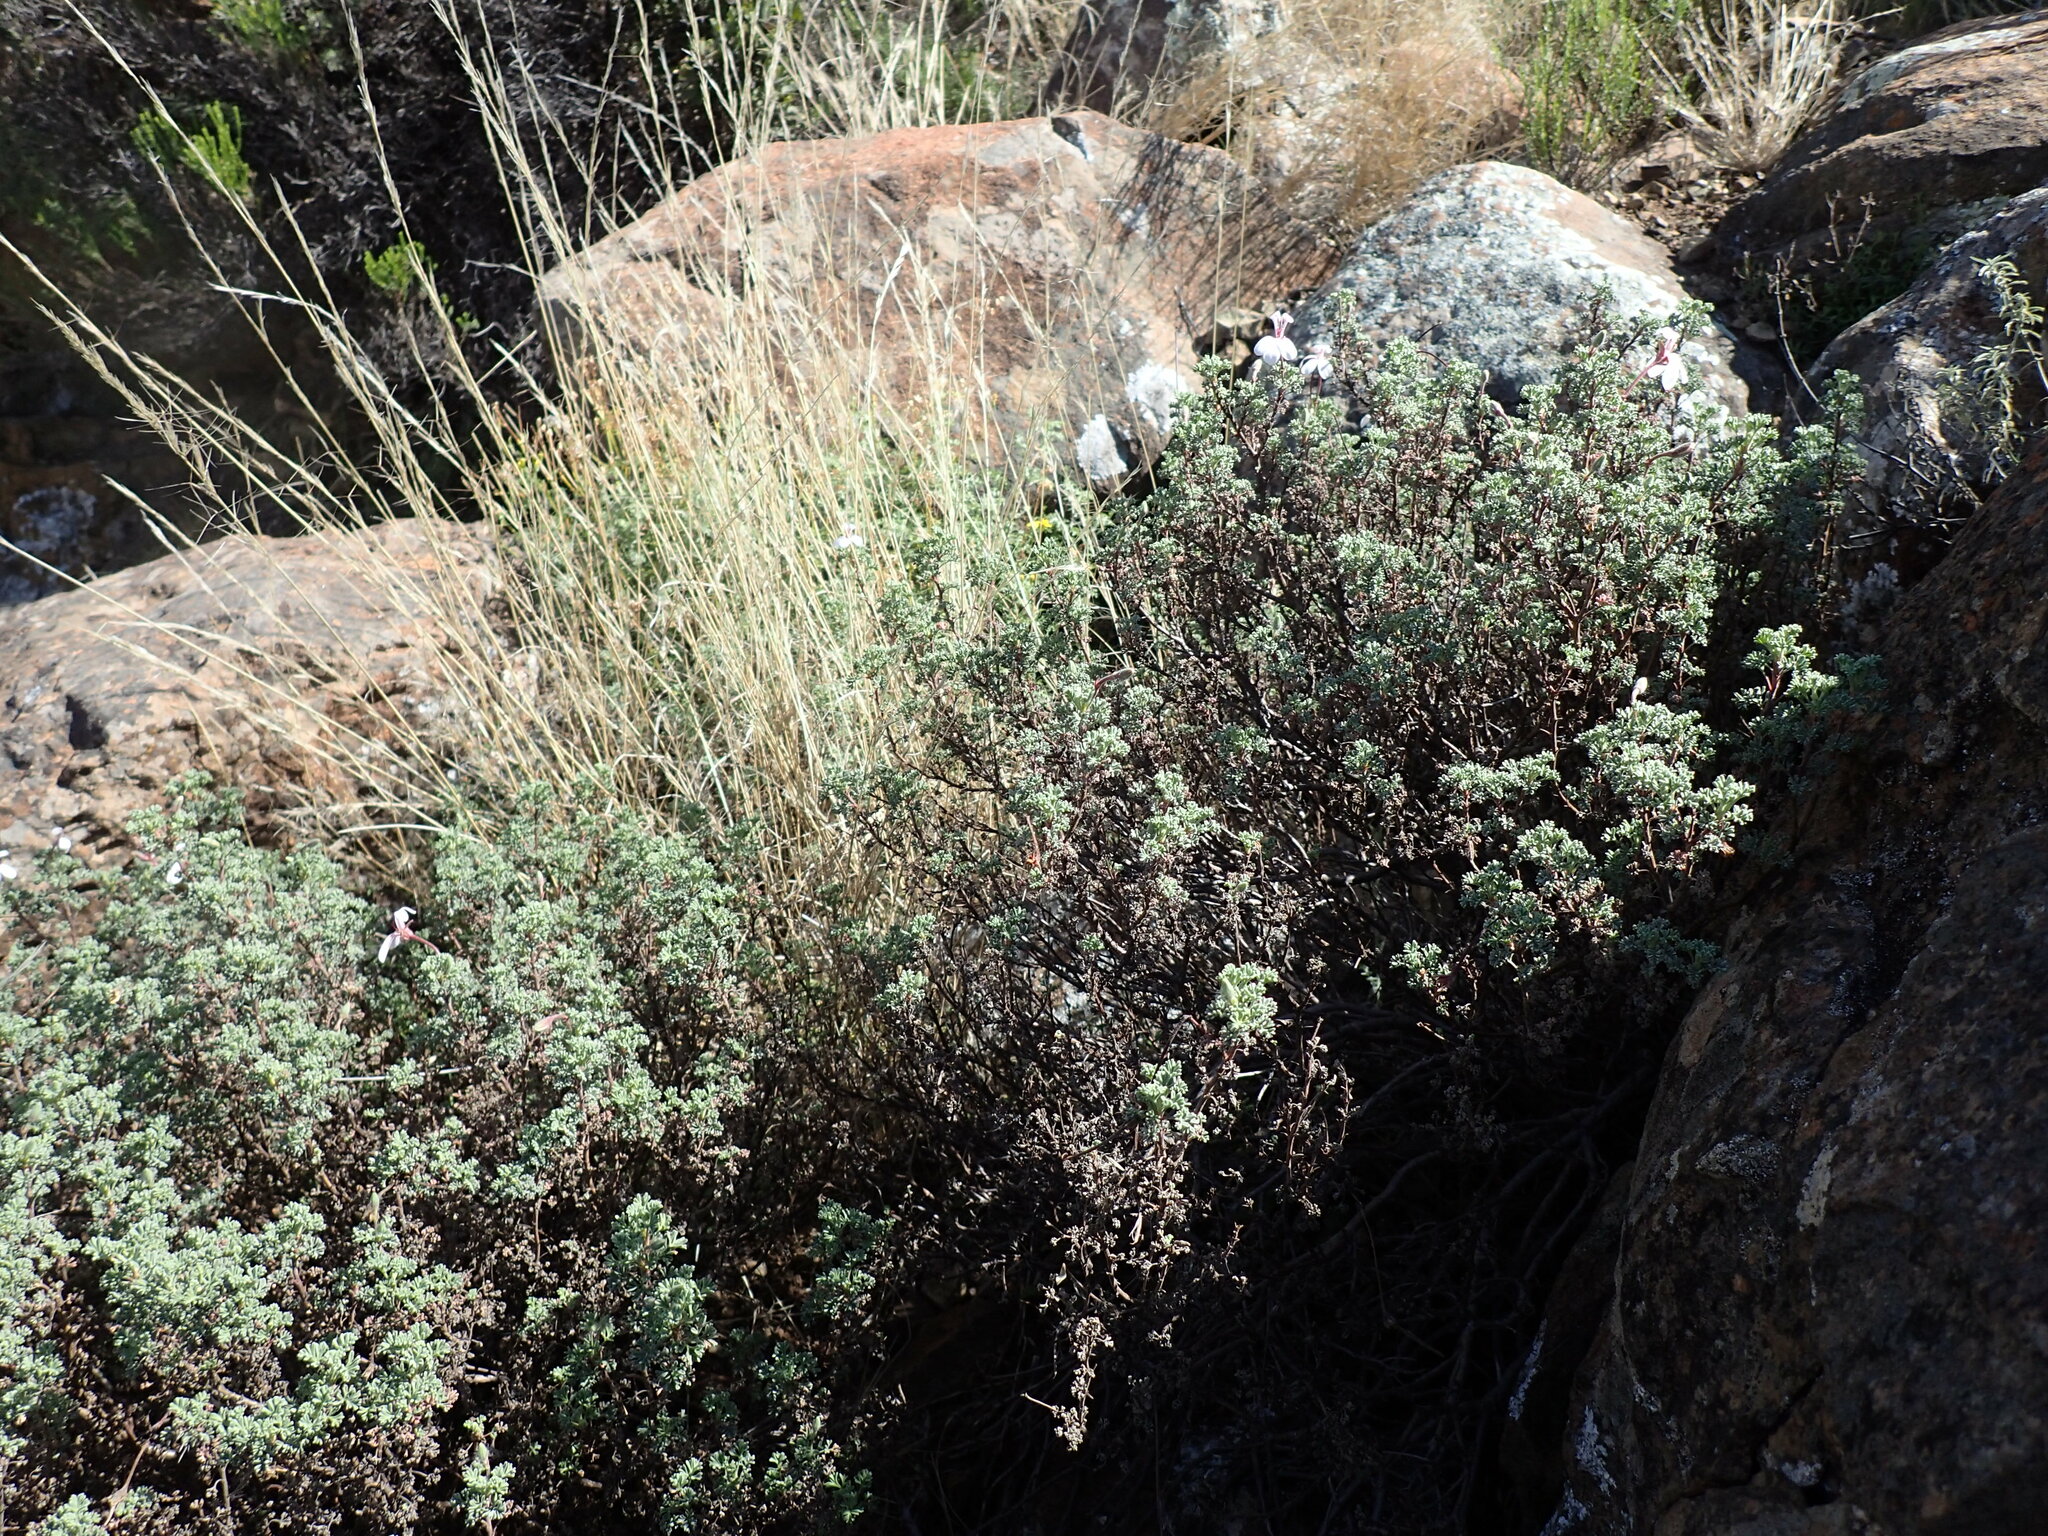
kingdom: Plantae
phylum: Tracheophyta
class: Magnoliopsida
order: Geraniales
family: Geraniaceae
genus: Pelargonium
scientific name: Pelargonium abrotanifolium
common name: Southernwood geranium
